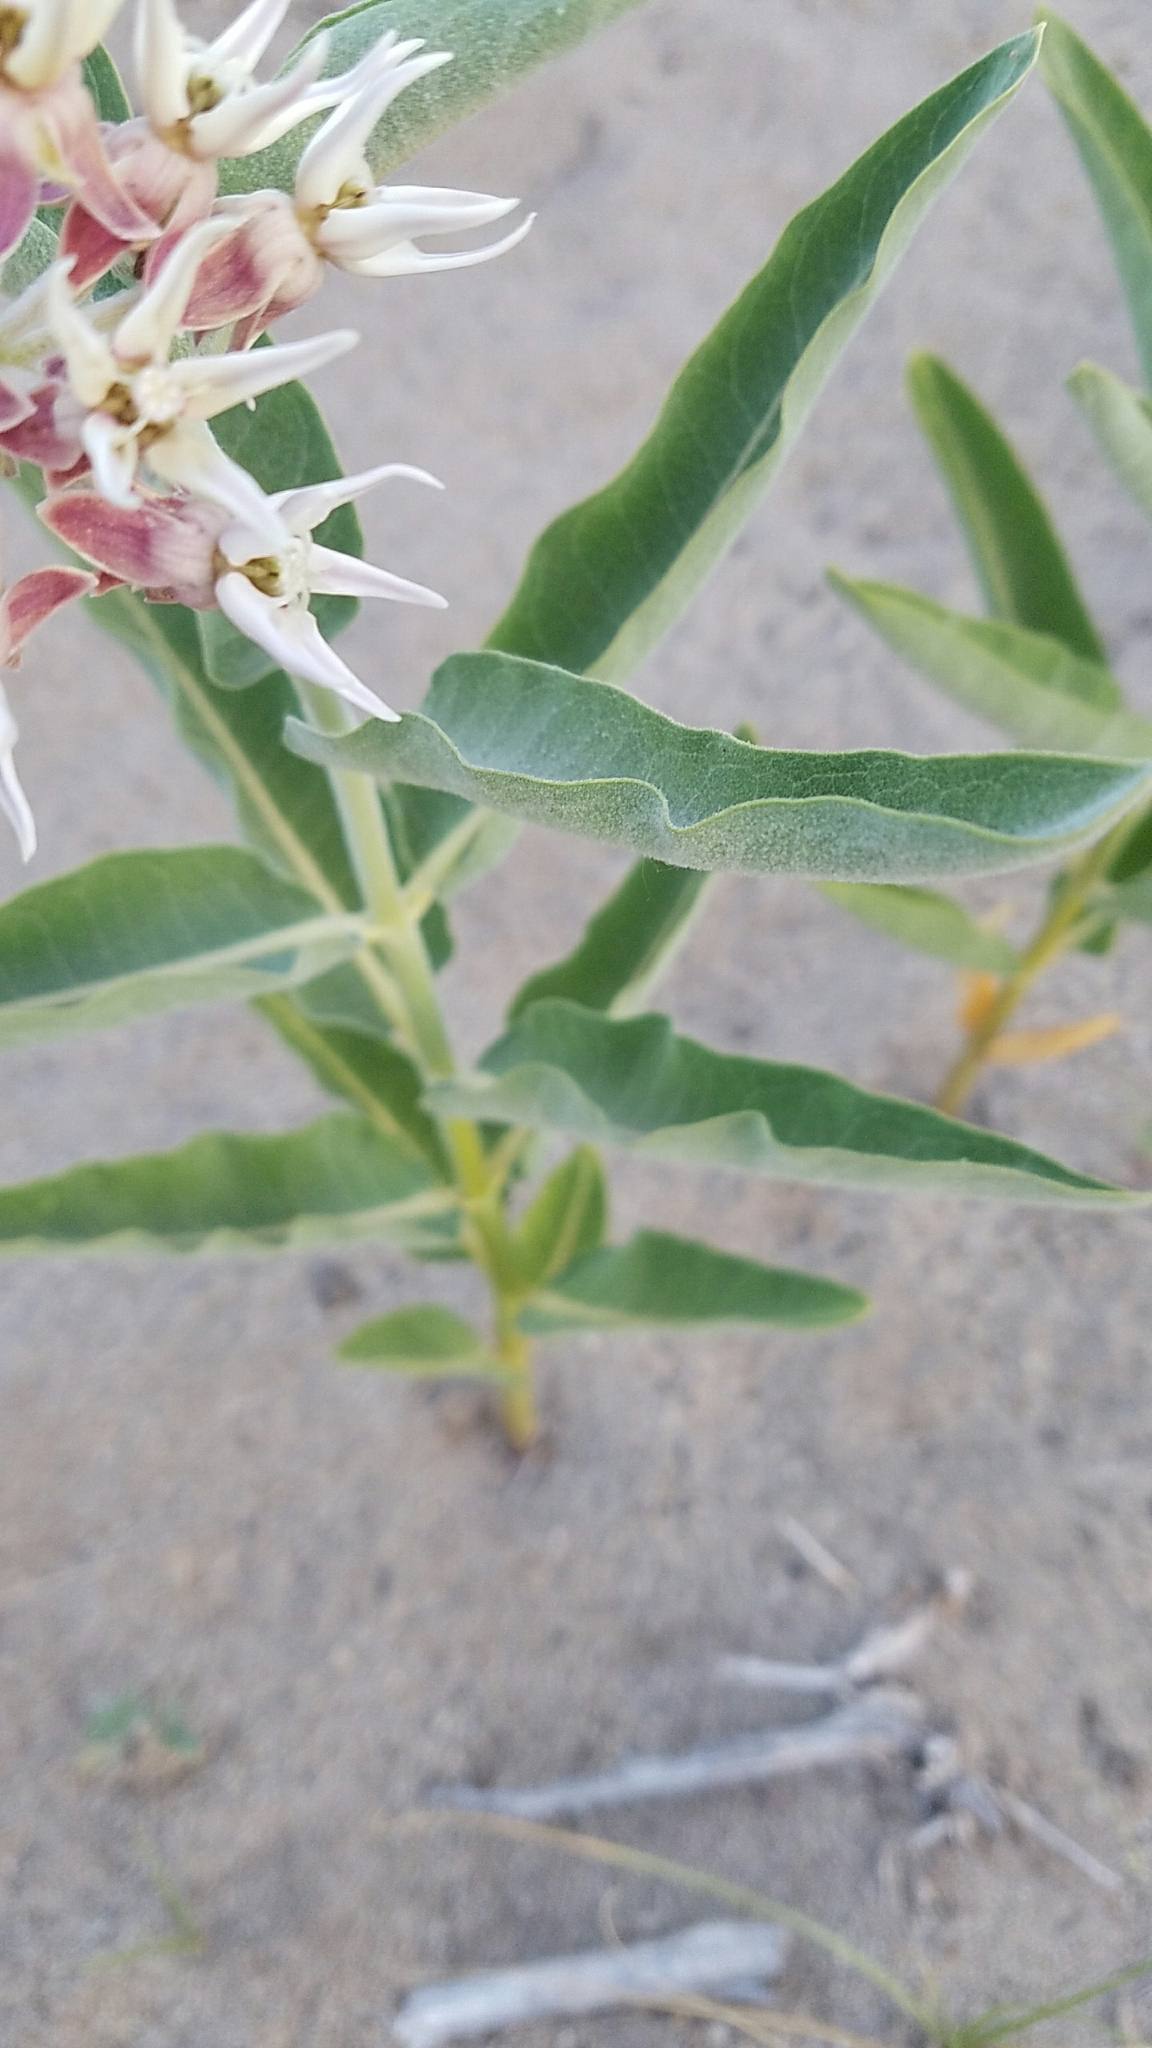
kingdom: Plantae
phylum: Tracheophyta
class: Magnoliopsida
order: Gentianales
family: Apocynaceae
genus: Asclepias
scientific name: Asclepias speciosa
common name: Showy milkweed
